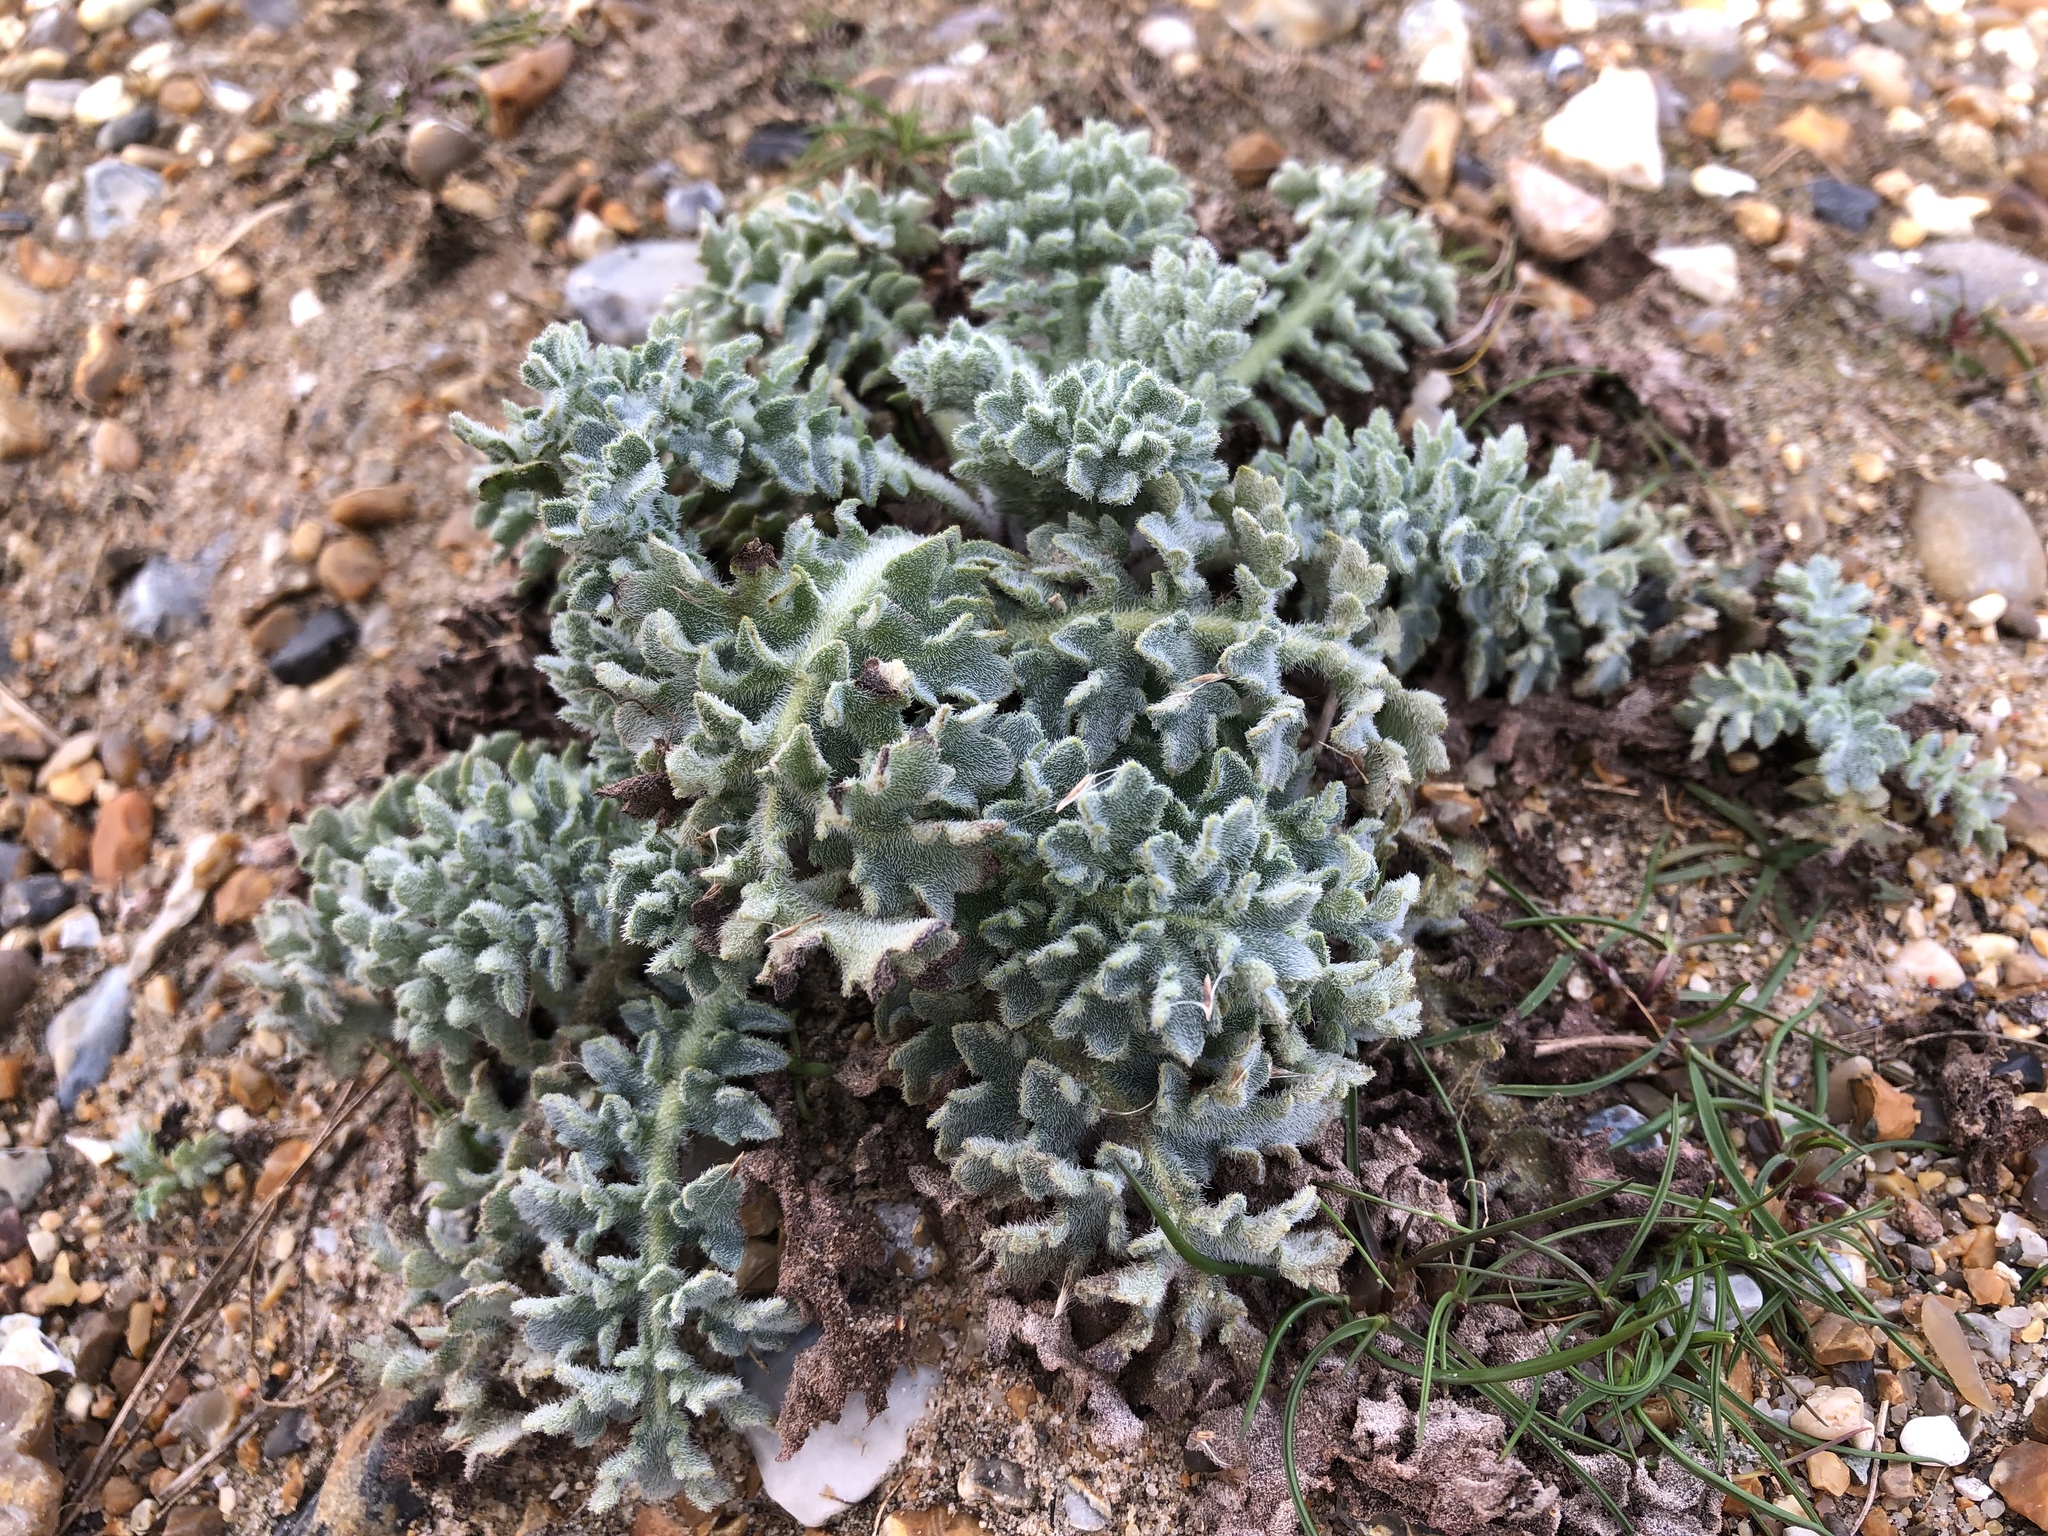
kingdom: Plantae
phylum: Tracheophyta
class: Magnoliopsida
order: Ranunculales
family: Papaveraceae
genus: Glaucium
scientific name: Glaucium flavum
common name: Yellow horned-poppy
